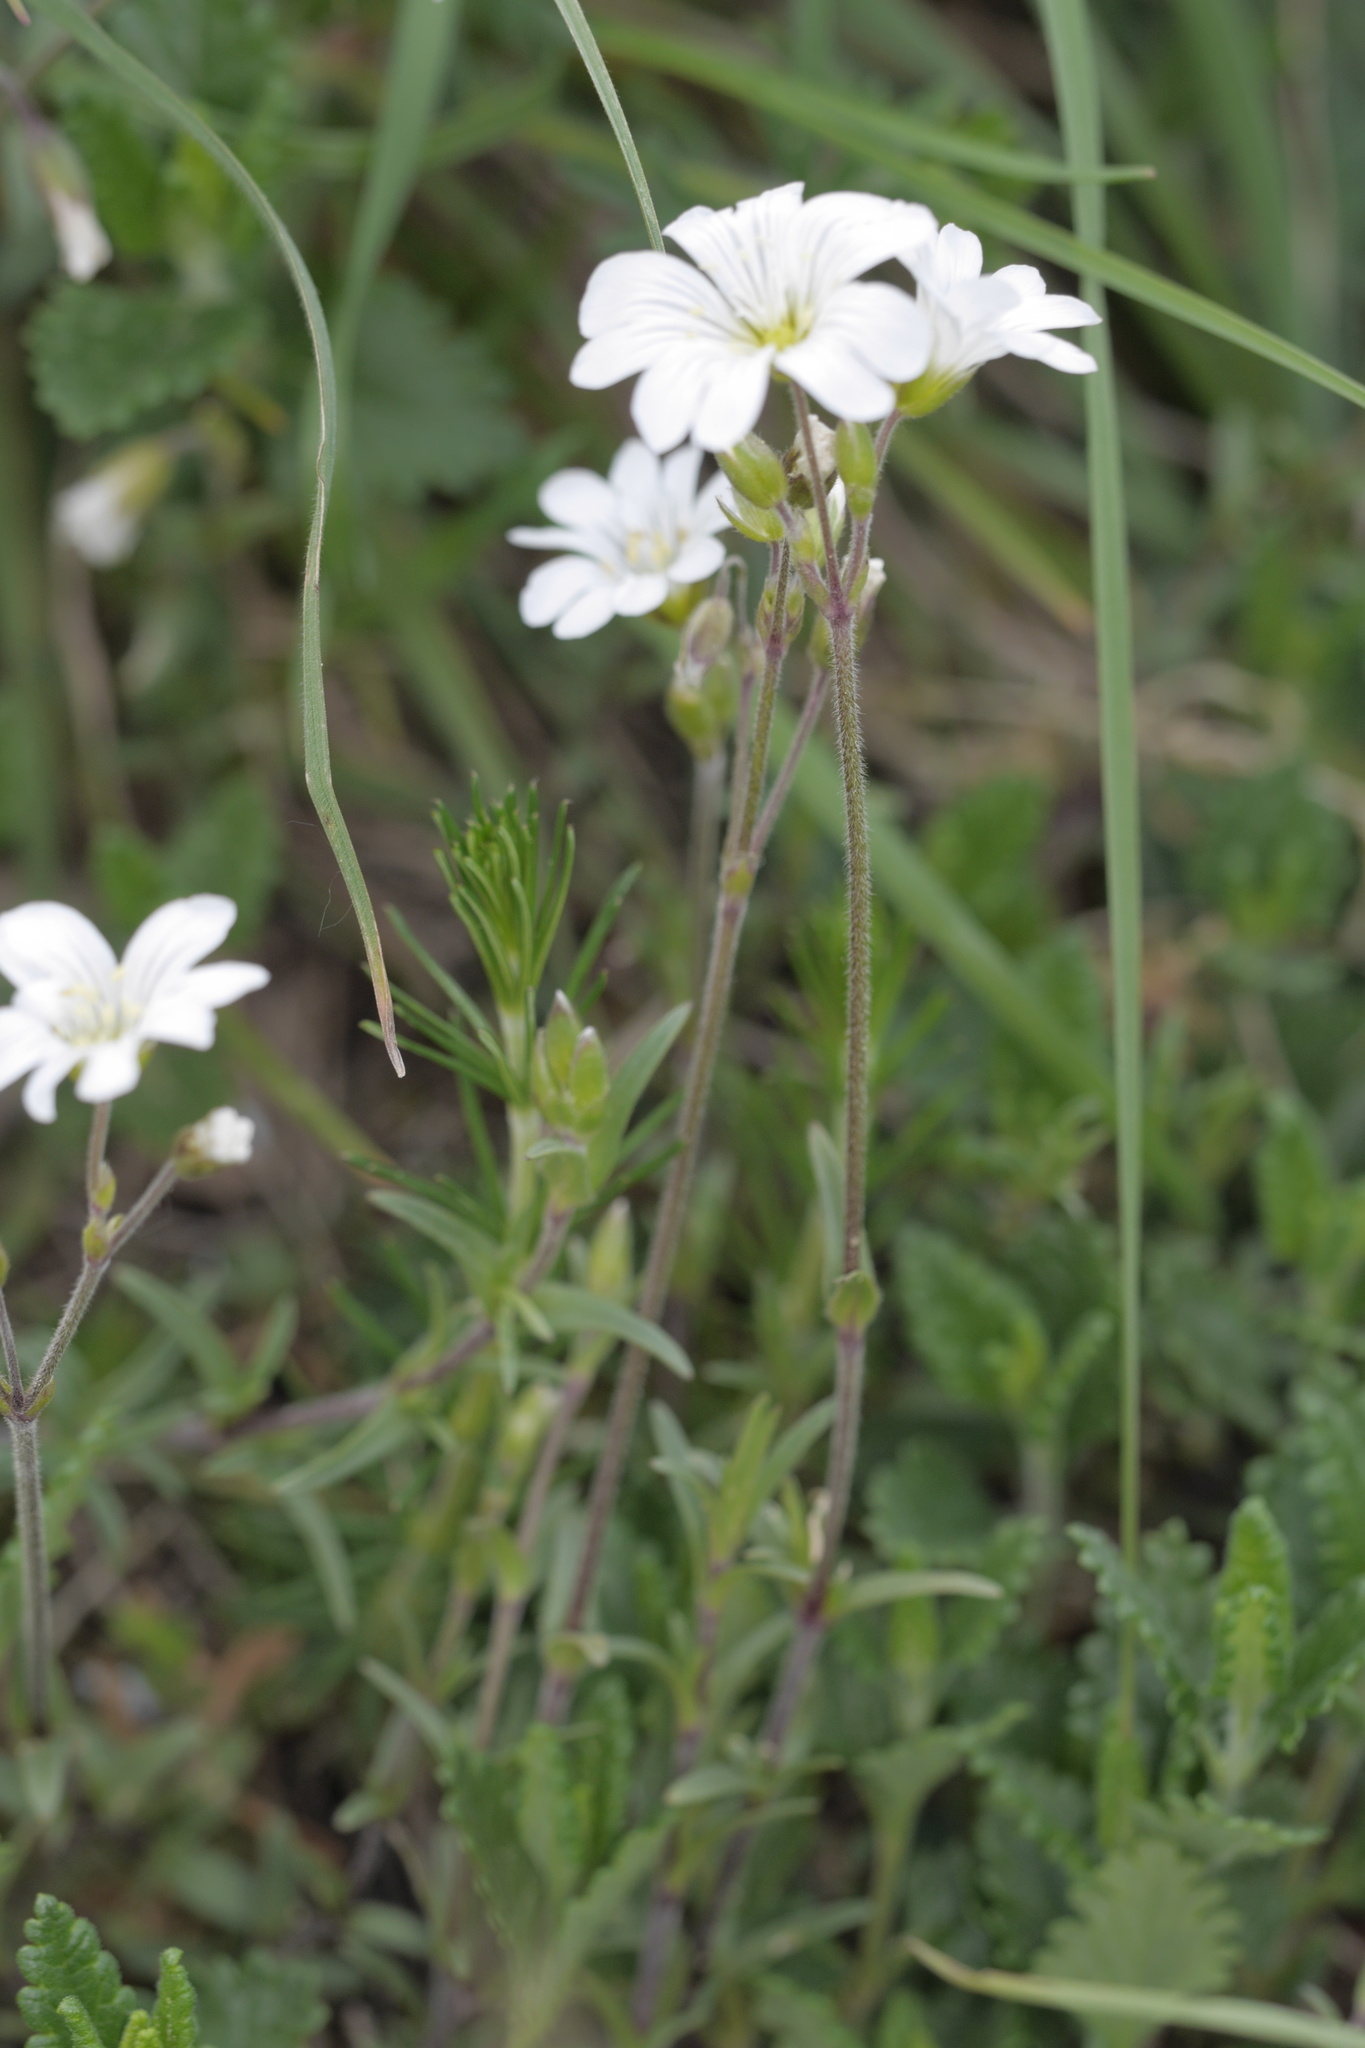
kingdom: Plantae
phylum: Tracheophyta
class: Magnoliopsida
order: Caryophyllales
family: Caryophyllaceae
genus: Cerastium
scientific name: Cerastium arvense
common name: Field mouse-ear
